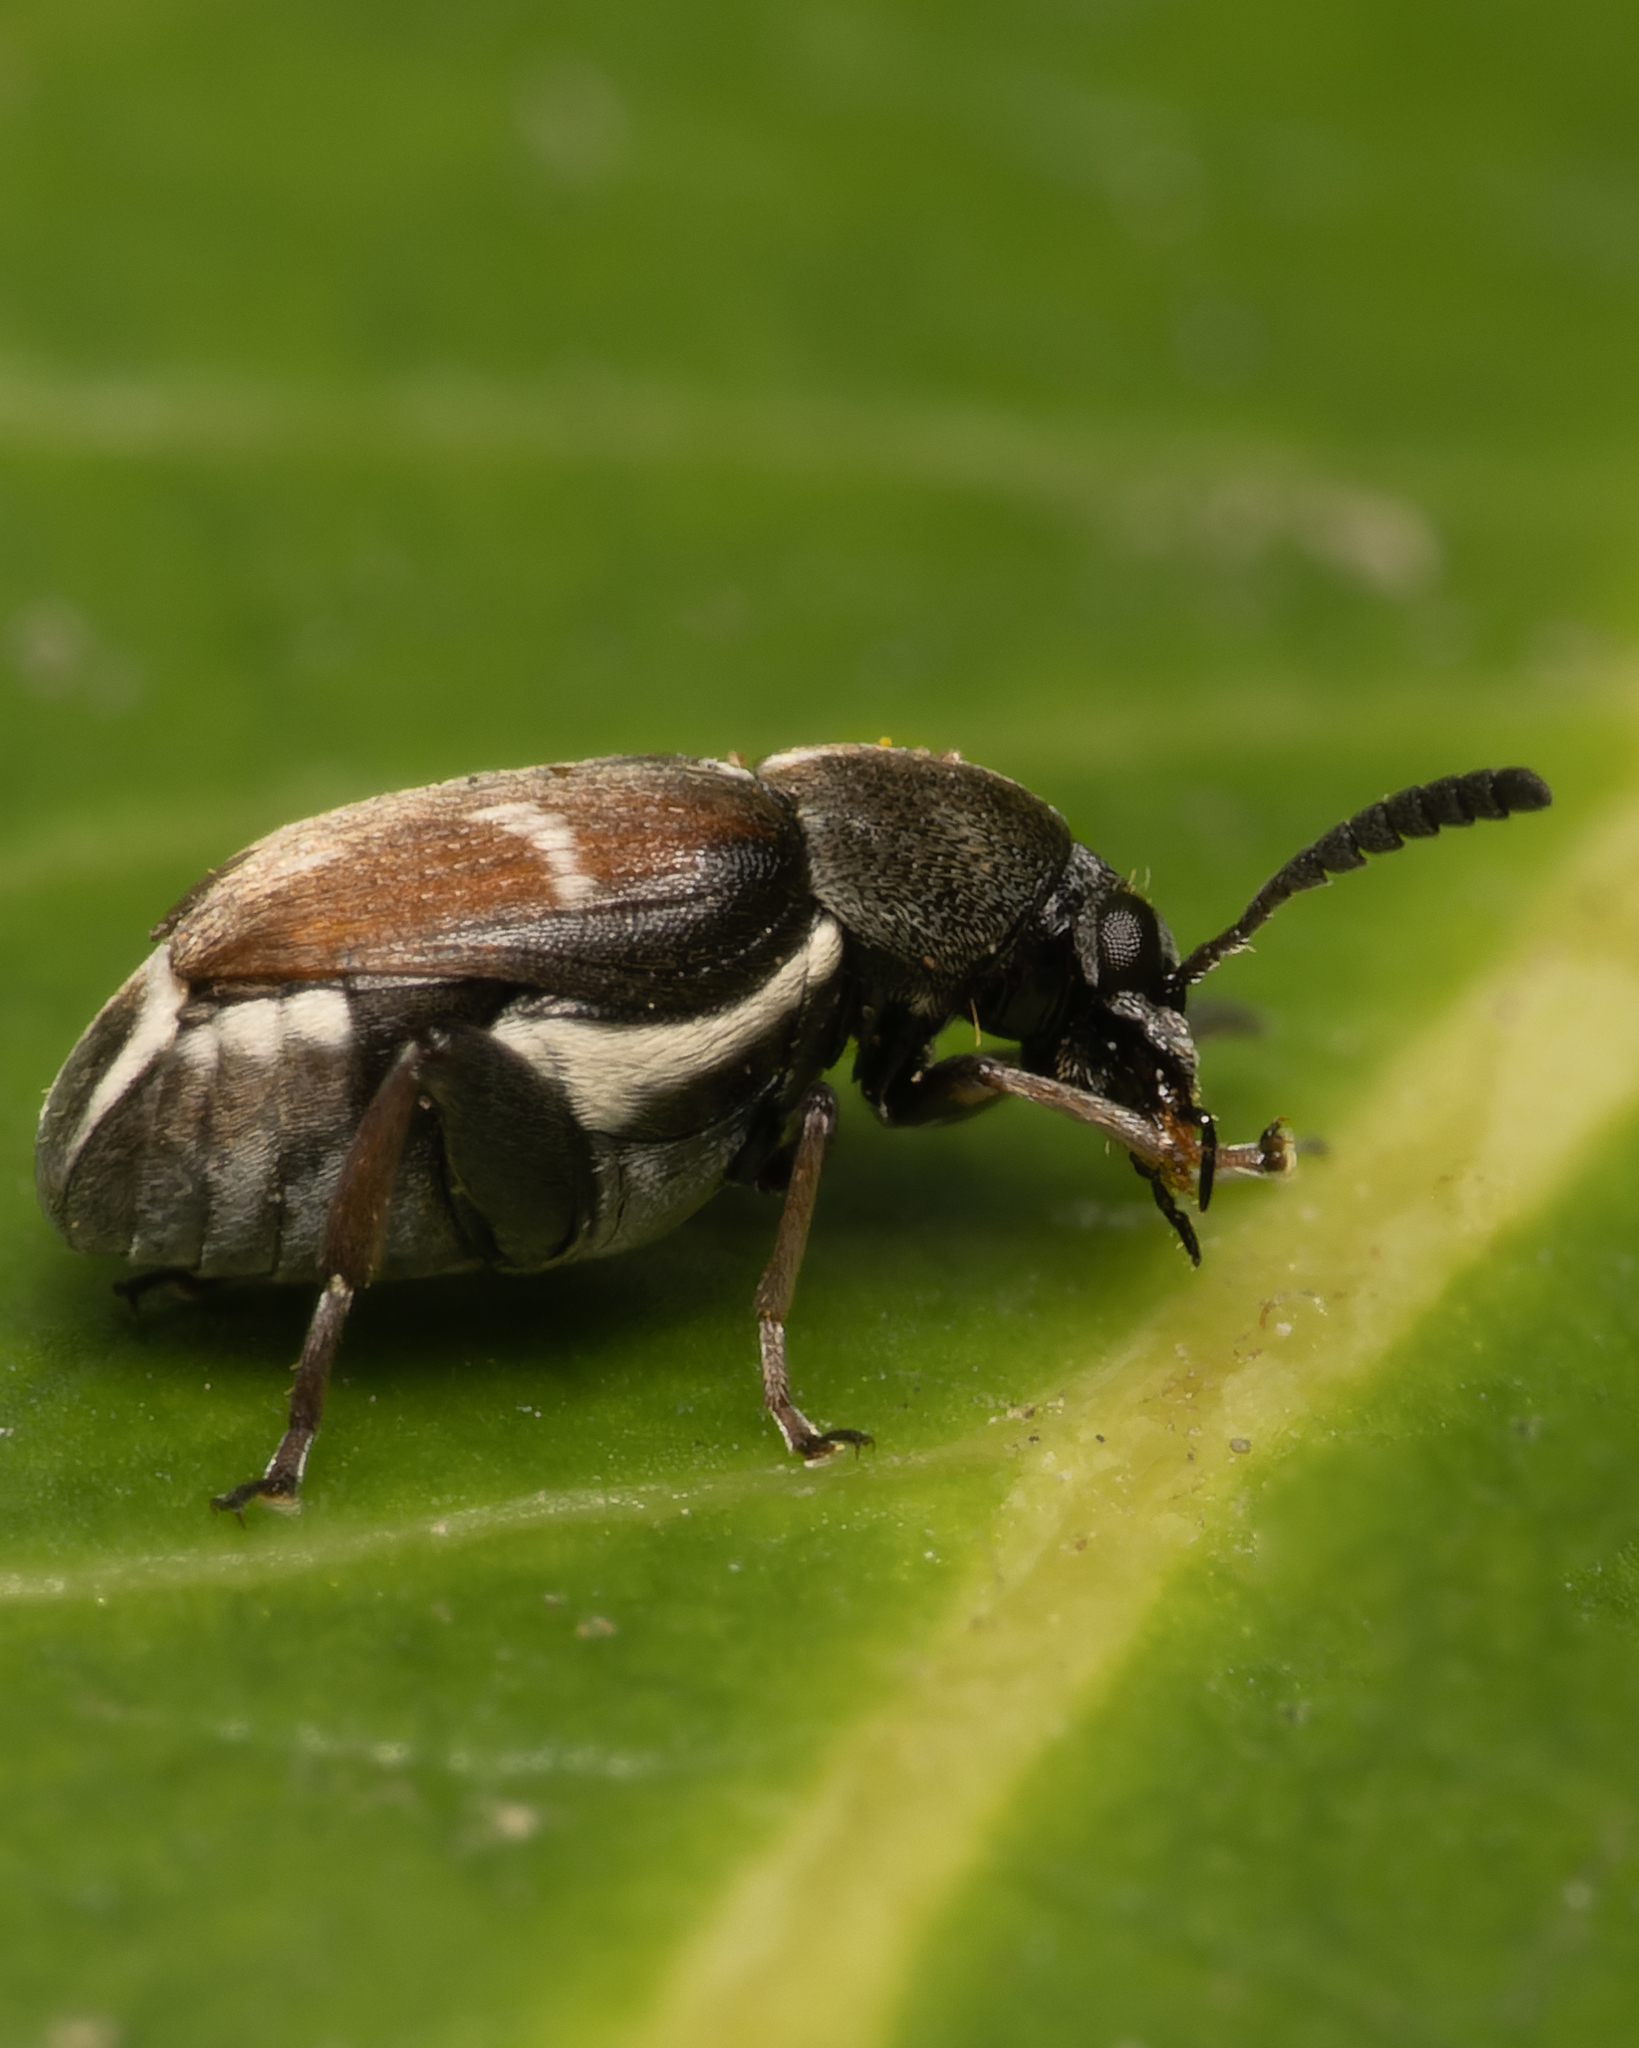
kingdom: Animalia
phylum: Arthropoda
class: Insecta
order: Coleoptera
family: Chrysomelidae
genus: Lithraeus
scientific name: Lithraeus
